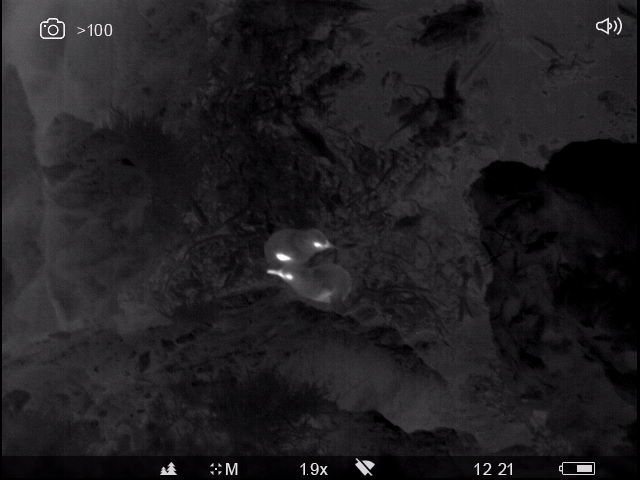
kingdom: Animalia
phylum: Chordata
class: Aves
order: Sphenisciformes
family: Spheniscidae
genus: Eudyptula
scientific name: Eudyptula minor
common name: Little penguin
